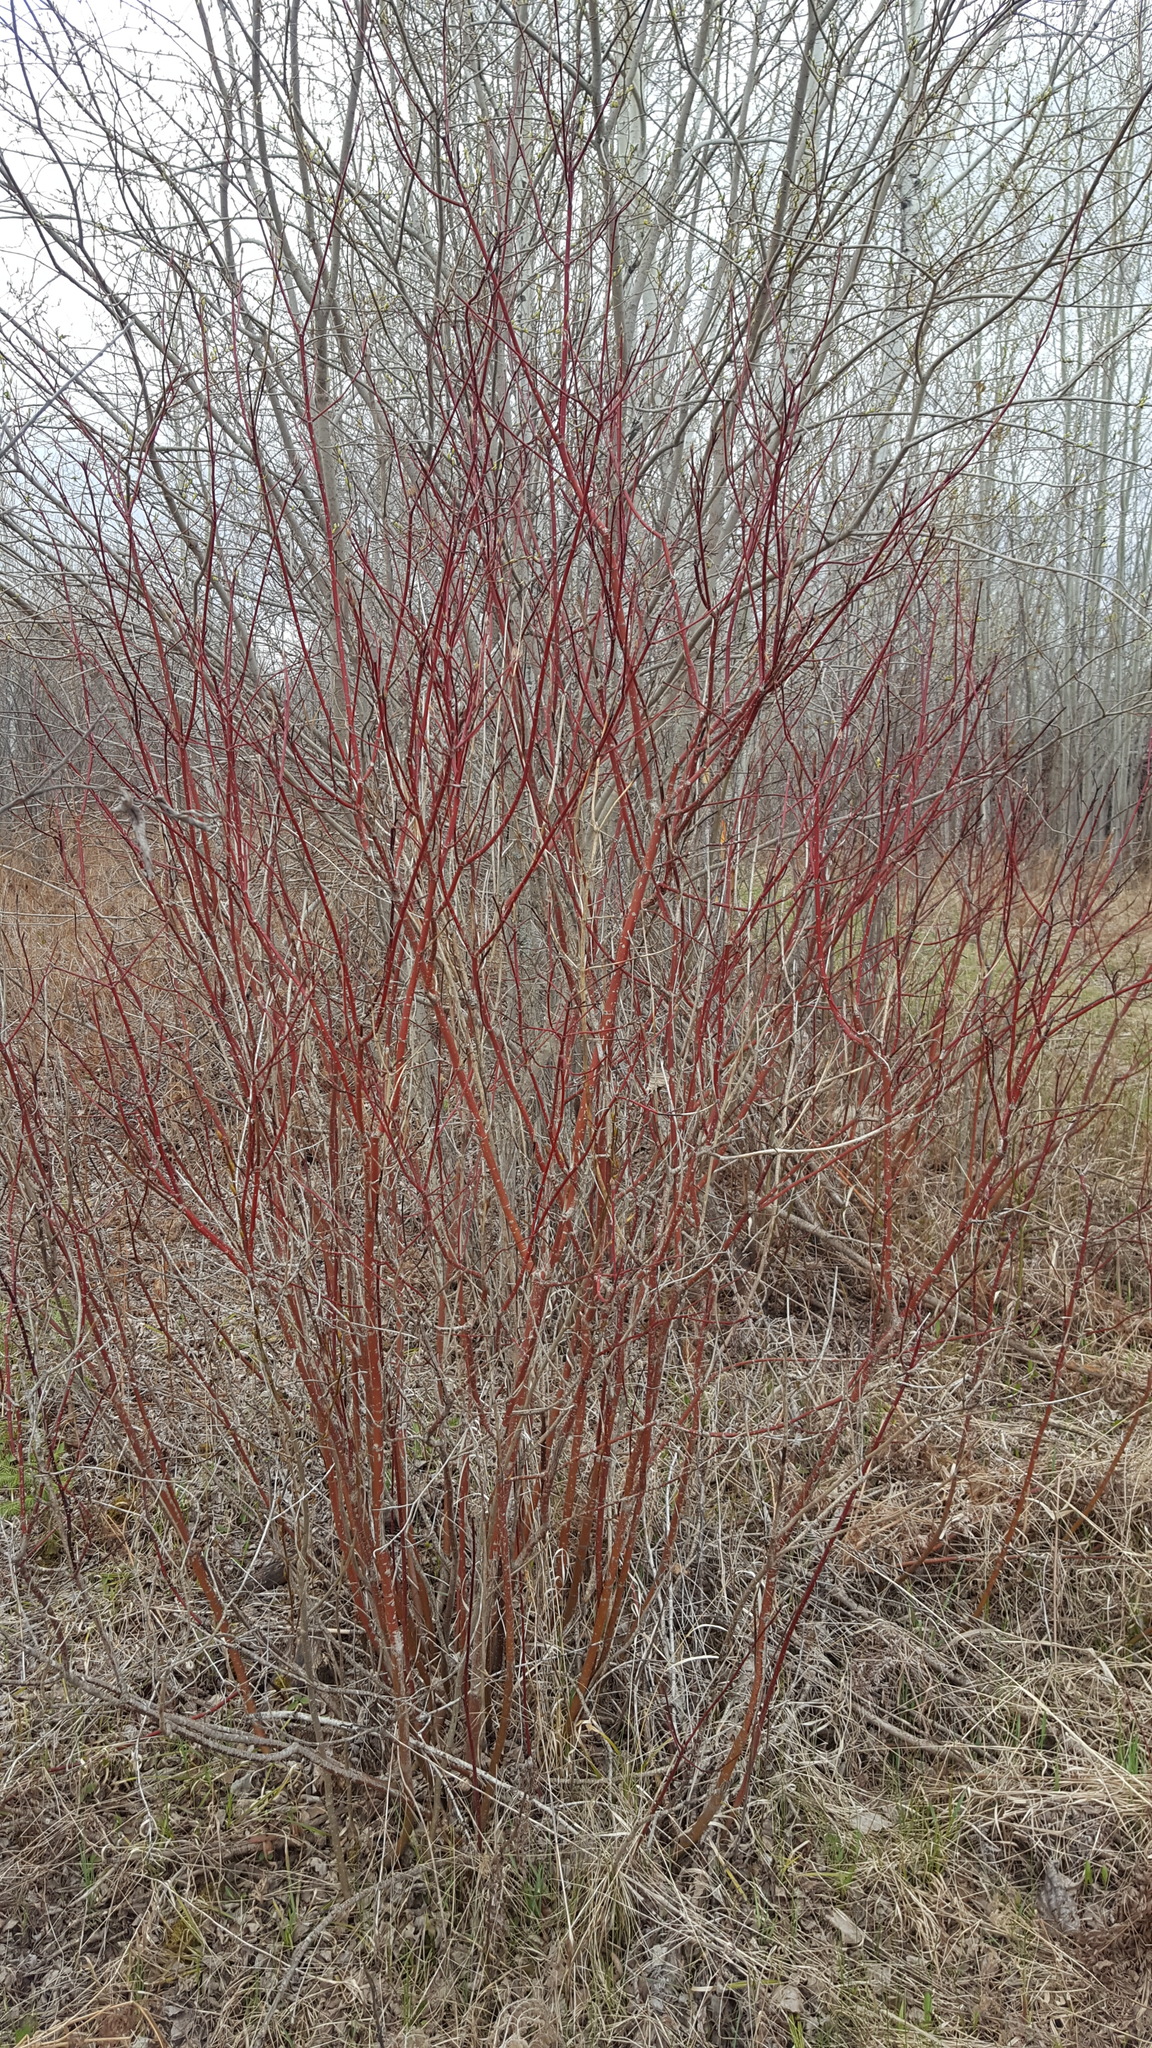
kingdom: Plantae
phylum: Tracheophyta
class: Magnoliopsida
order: Cornales
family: Cornaceae
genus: Cornus
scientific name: Cornus sericea
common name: Red-osier dogwood
